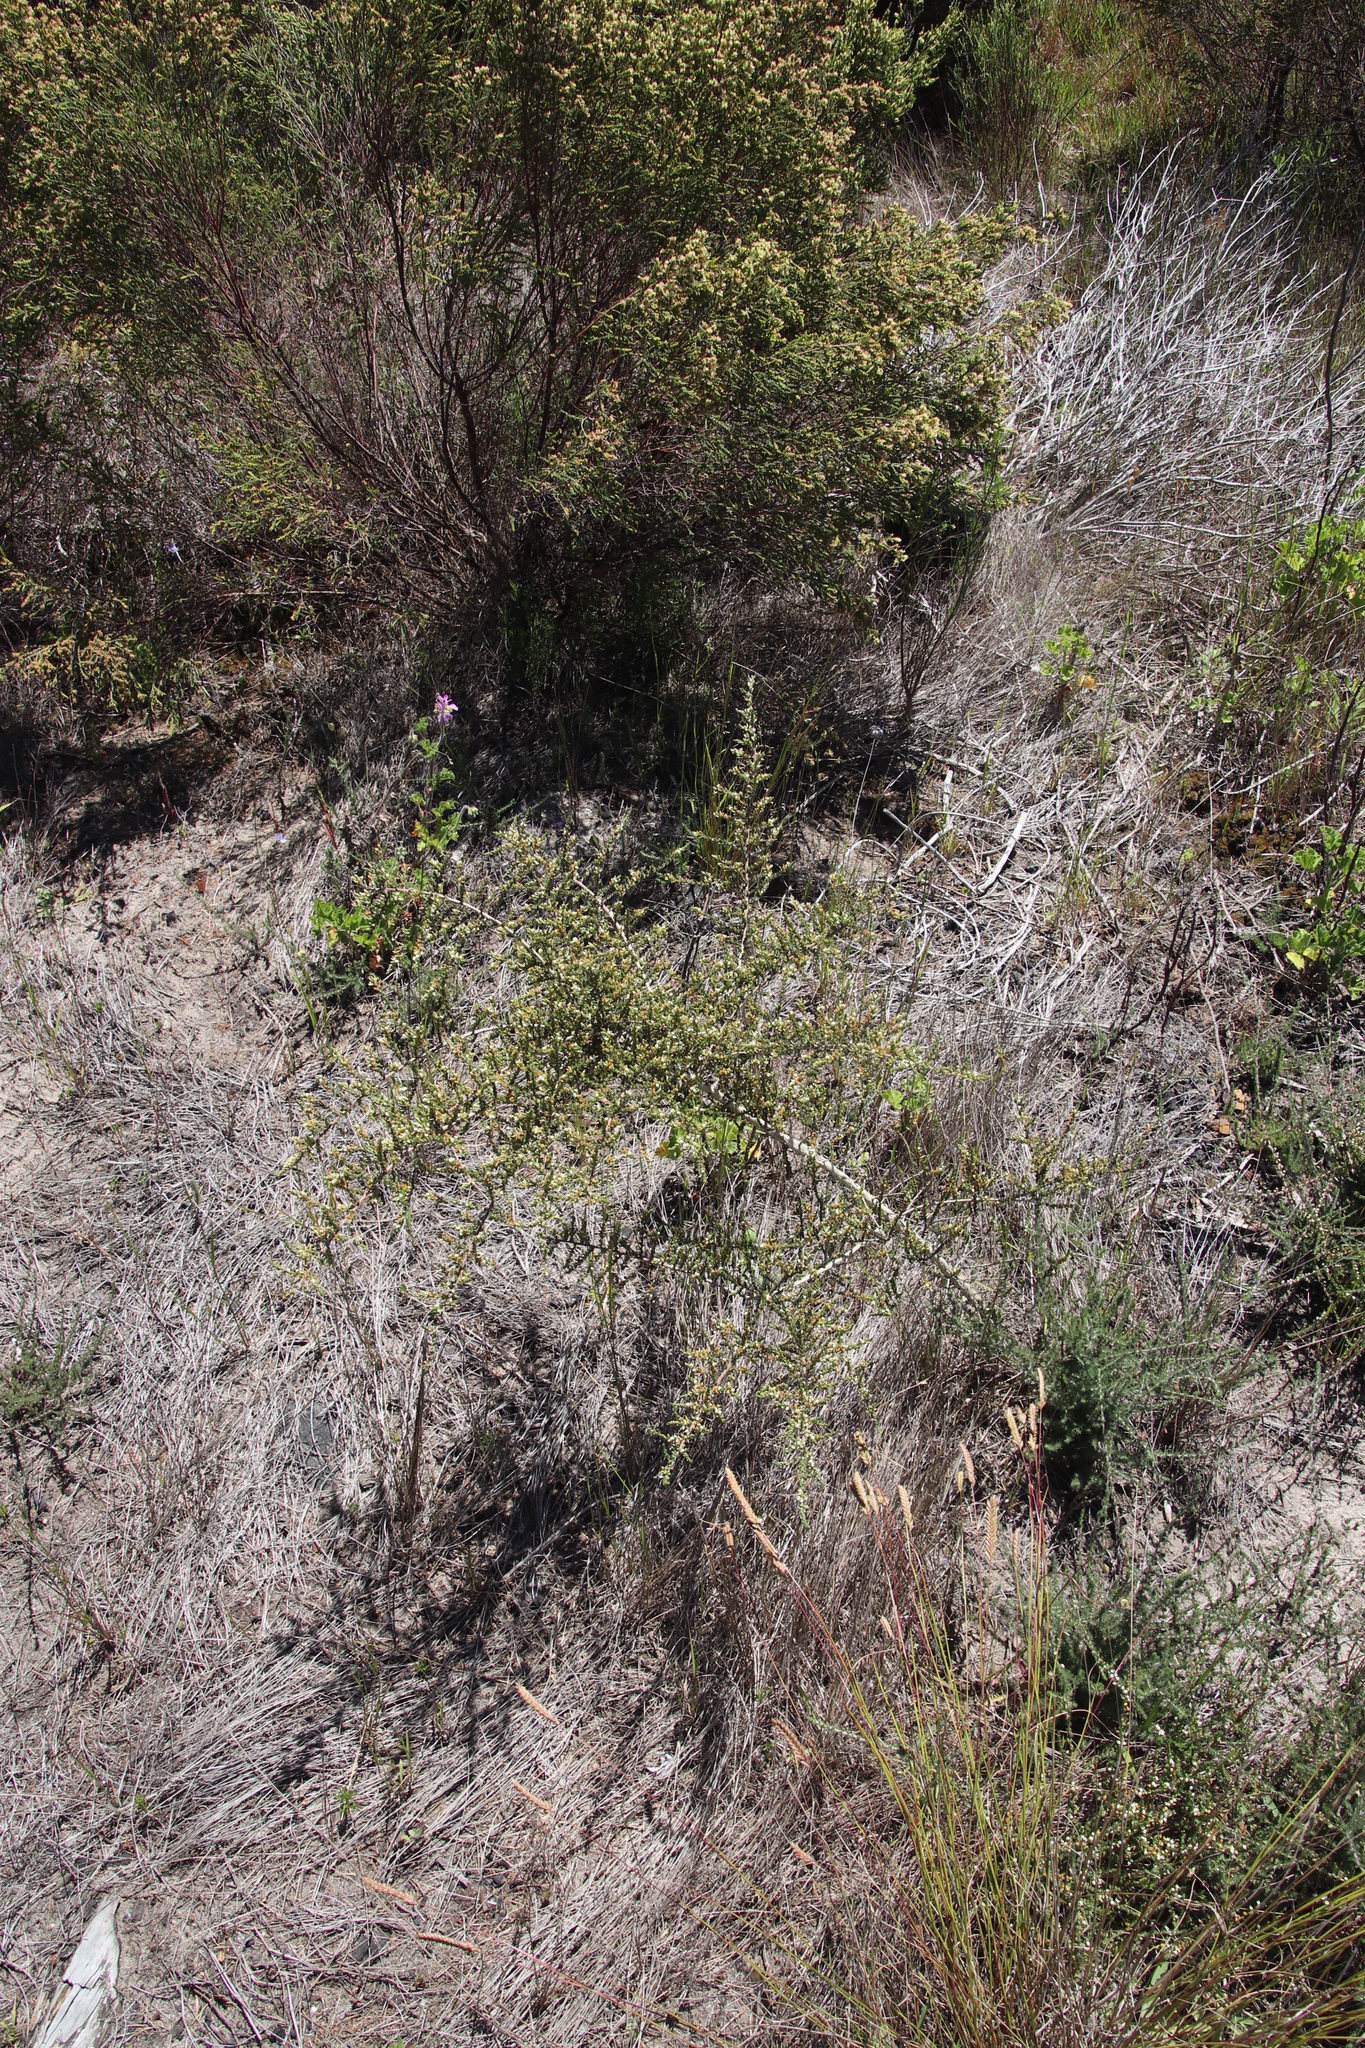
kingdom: Plantae
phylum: Tracheophyta
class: Magnoliopsida
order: Fabales
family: Fabaceae
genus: Aspalathus
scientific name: Aspalathus hispida
